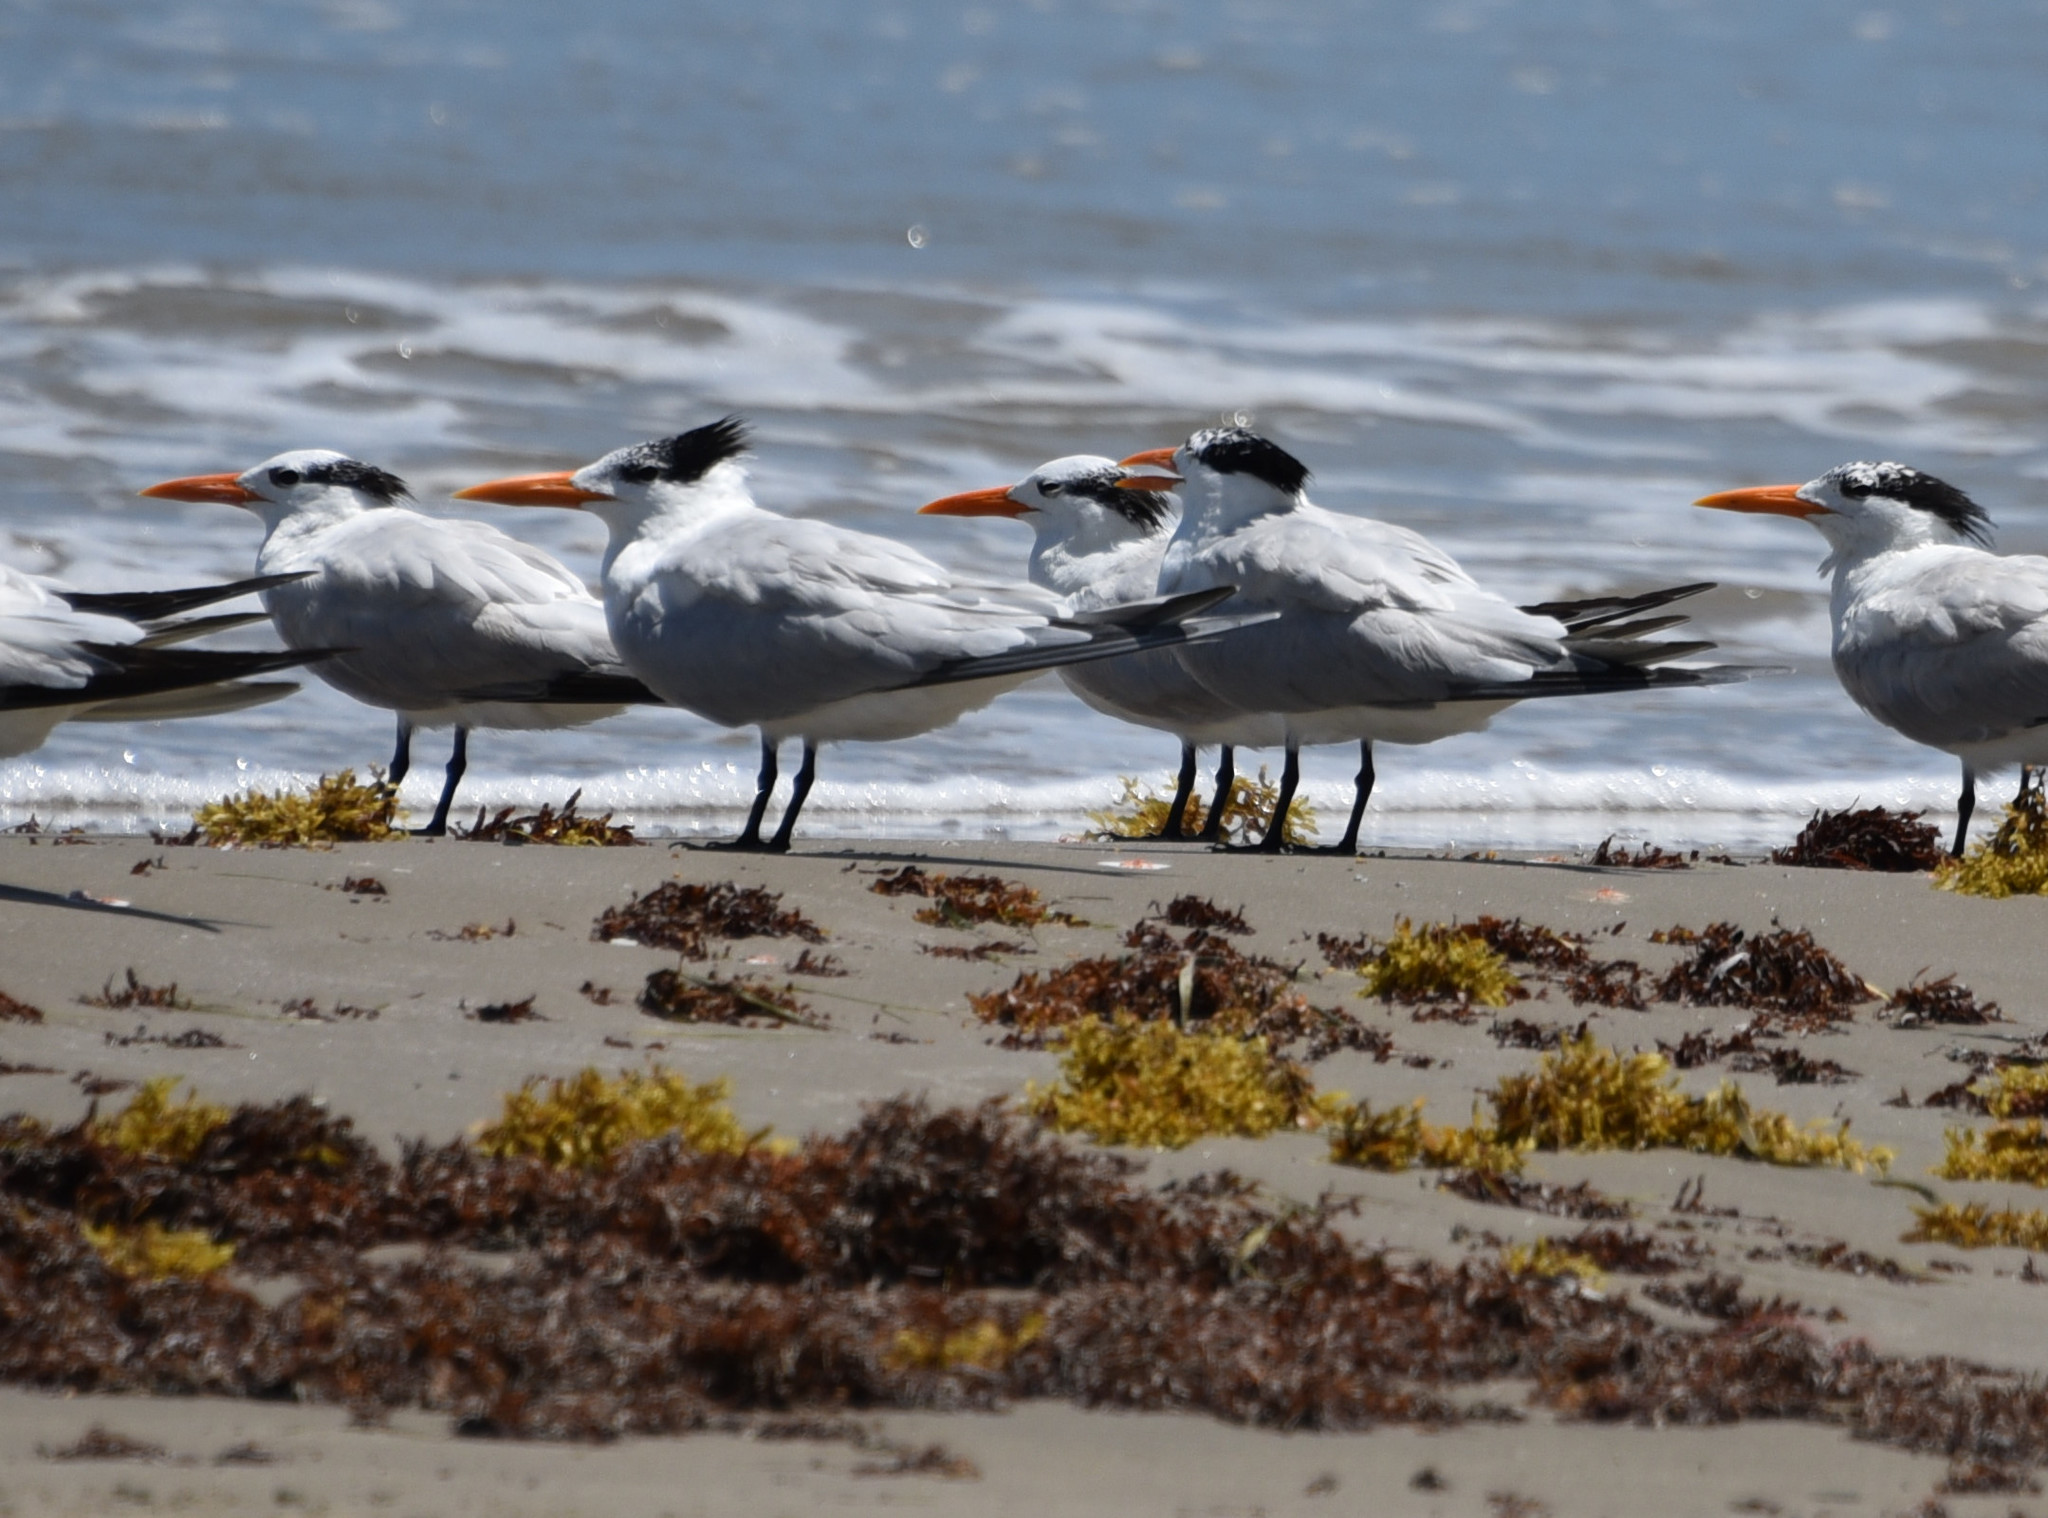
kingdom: Animalia
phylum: Chordata
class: Aves
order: Charadriiformes
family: Laridae
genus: Thalasseus
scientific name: Thalasseus maximus
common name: Royal tern
